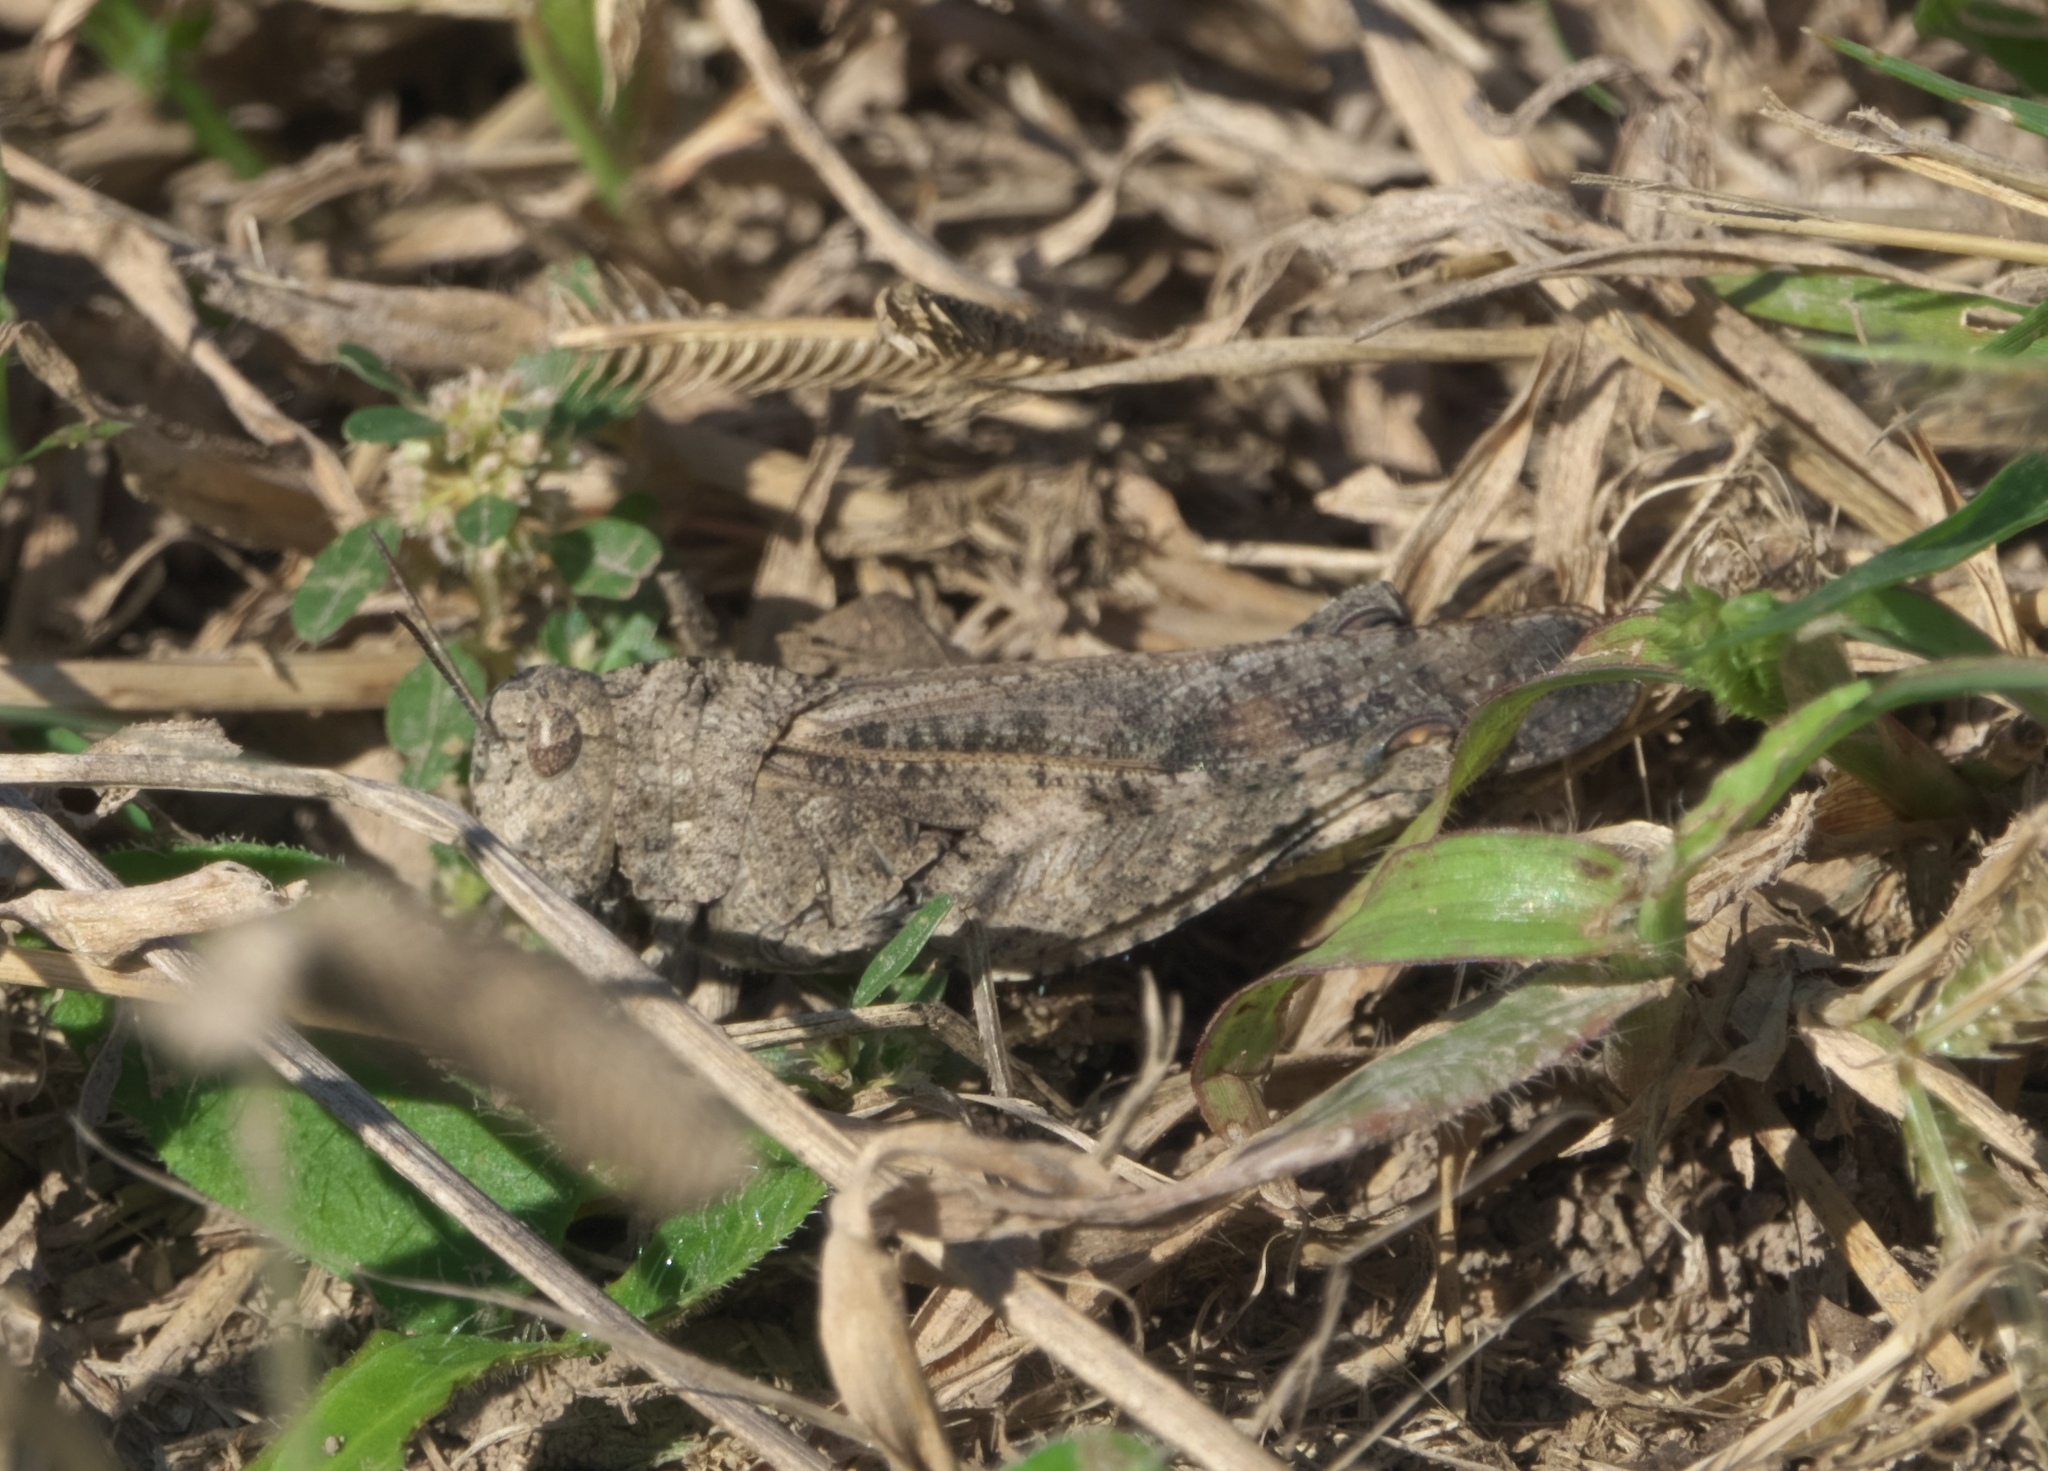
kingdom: Animalia
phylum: Arthropoda
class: Insecta
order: Orthoptera
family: Acrididae
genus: Arphia
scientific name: Arphia simplex
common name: Plains yellow-winged grasshopper
